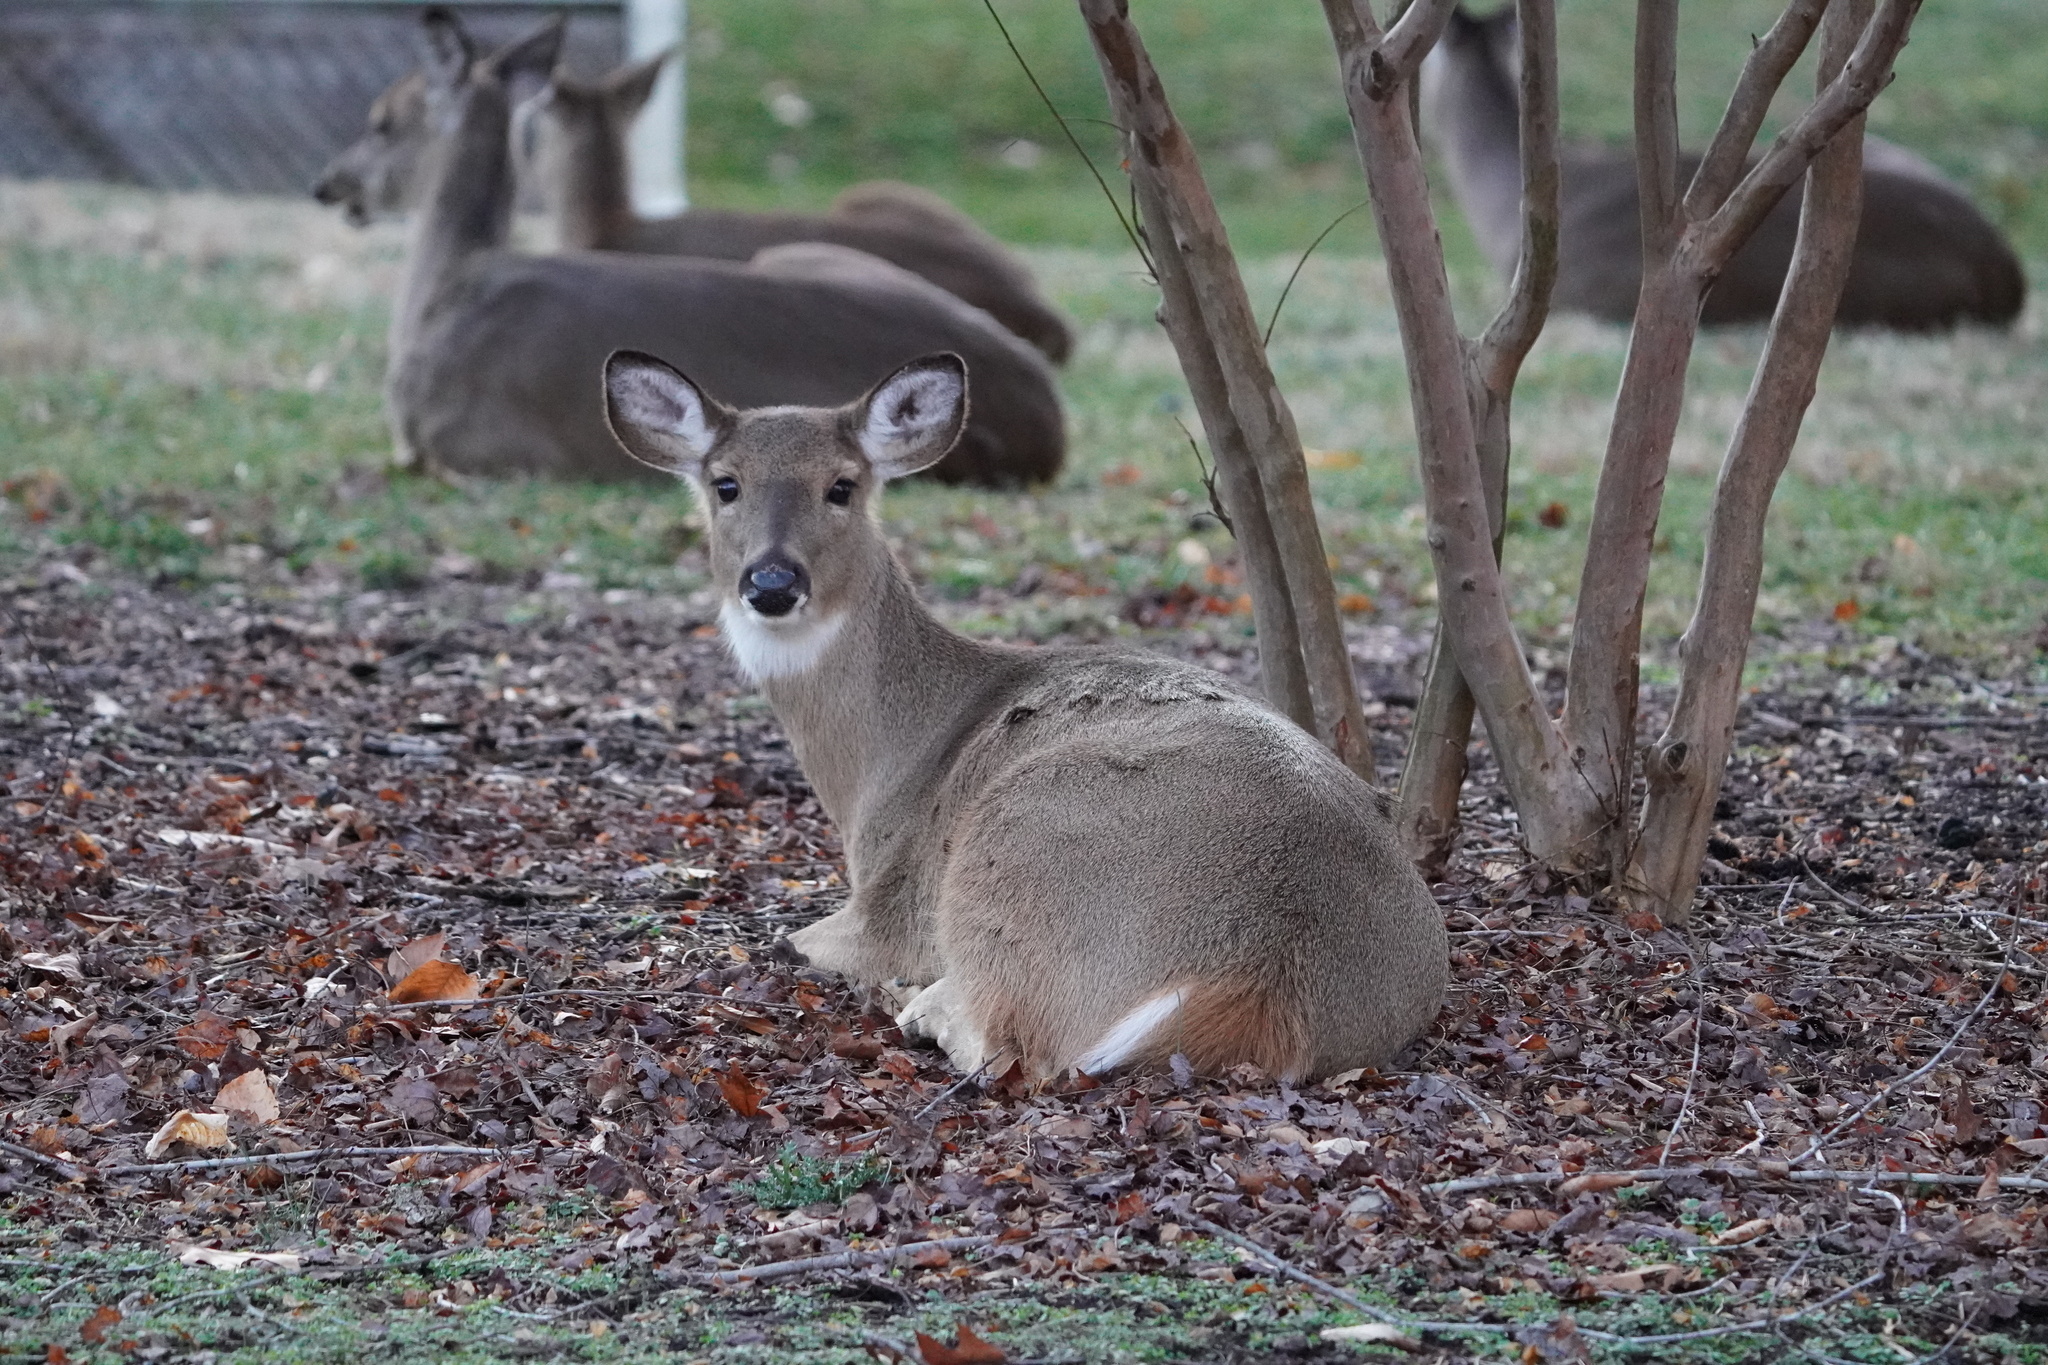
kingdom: Animalia
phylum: Chordata
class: Mammalia
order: Artiodactyla
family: Cervidae
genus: Odocoileus
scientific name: Odocoileus virginianus
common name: White-tailed deer
